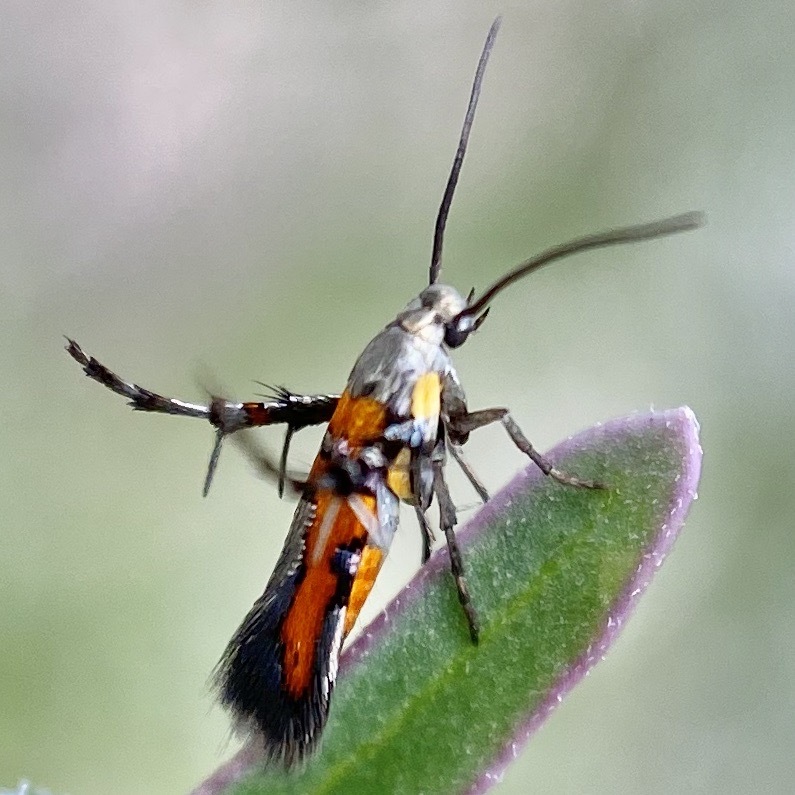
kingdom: Animalia
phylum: Arthropoda
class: Insecta
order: Lepidoptera
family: Heliodinidae
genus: Heliodines
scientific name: Heliodines Aetole tripunctella
